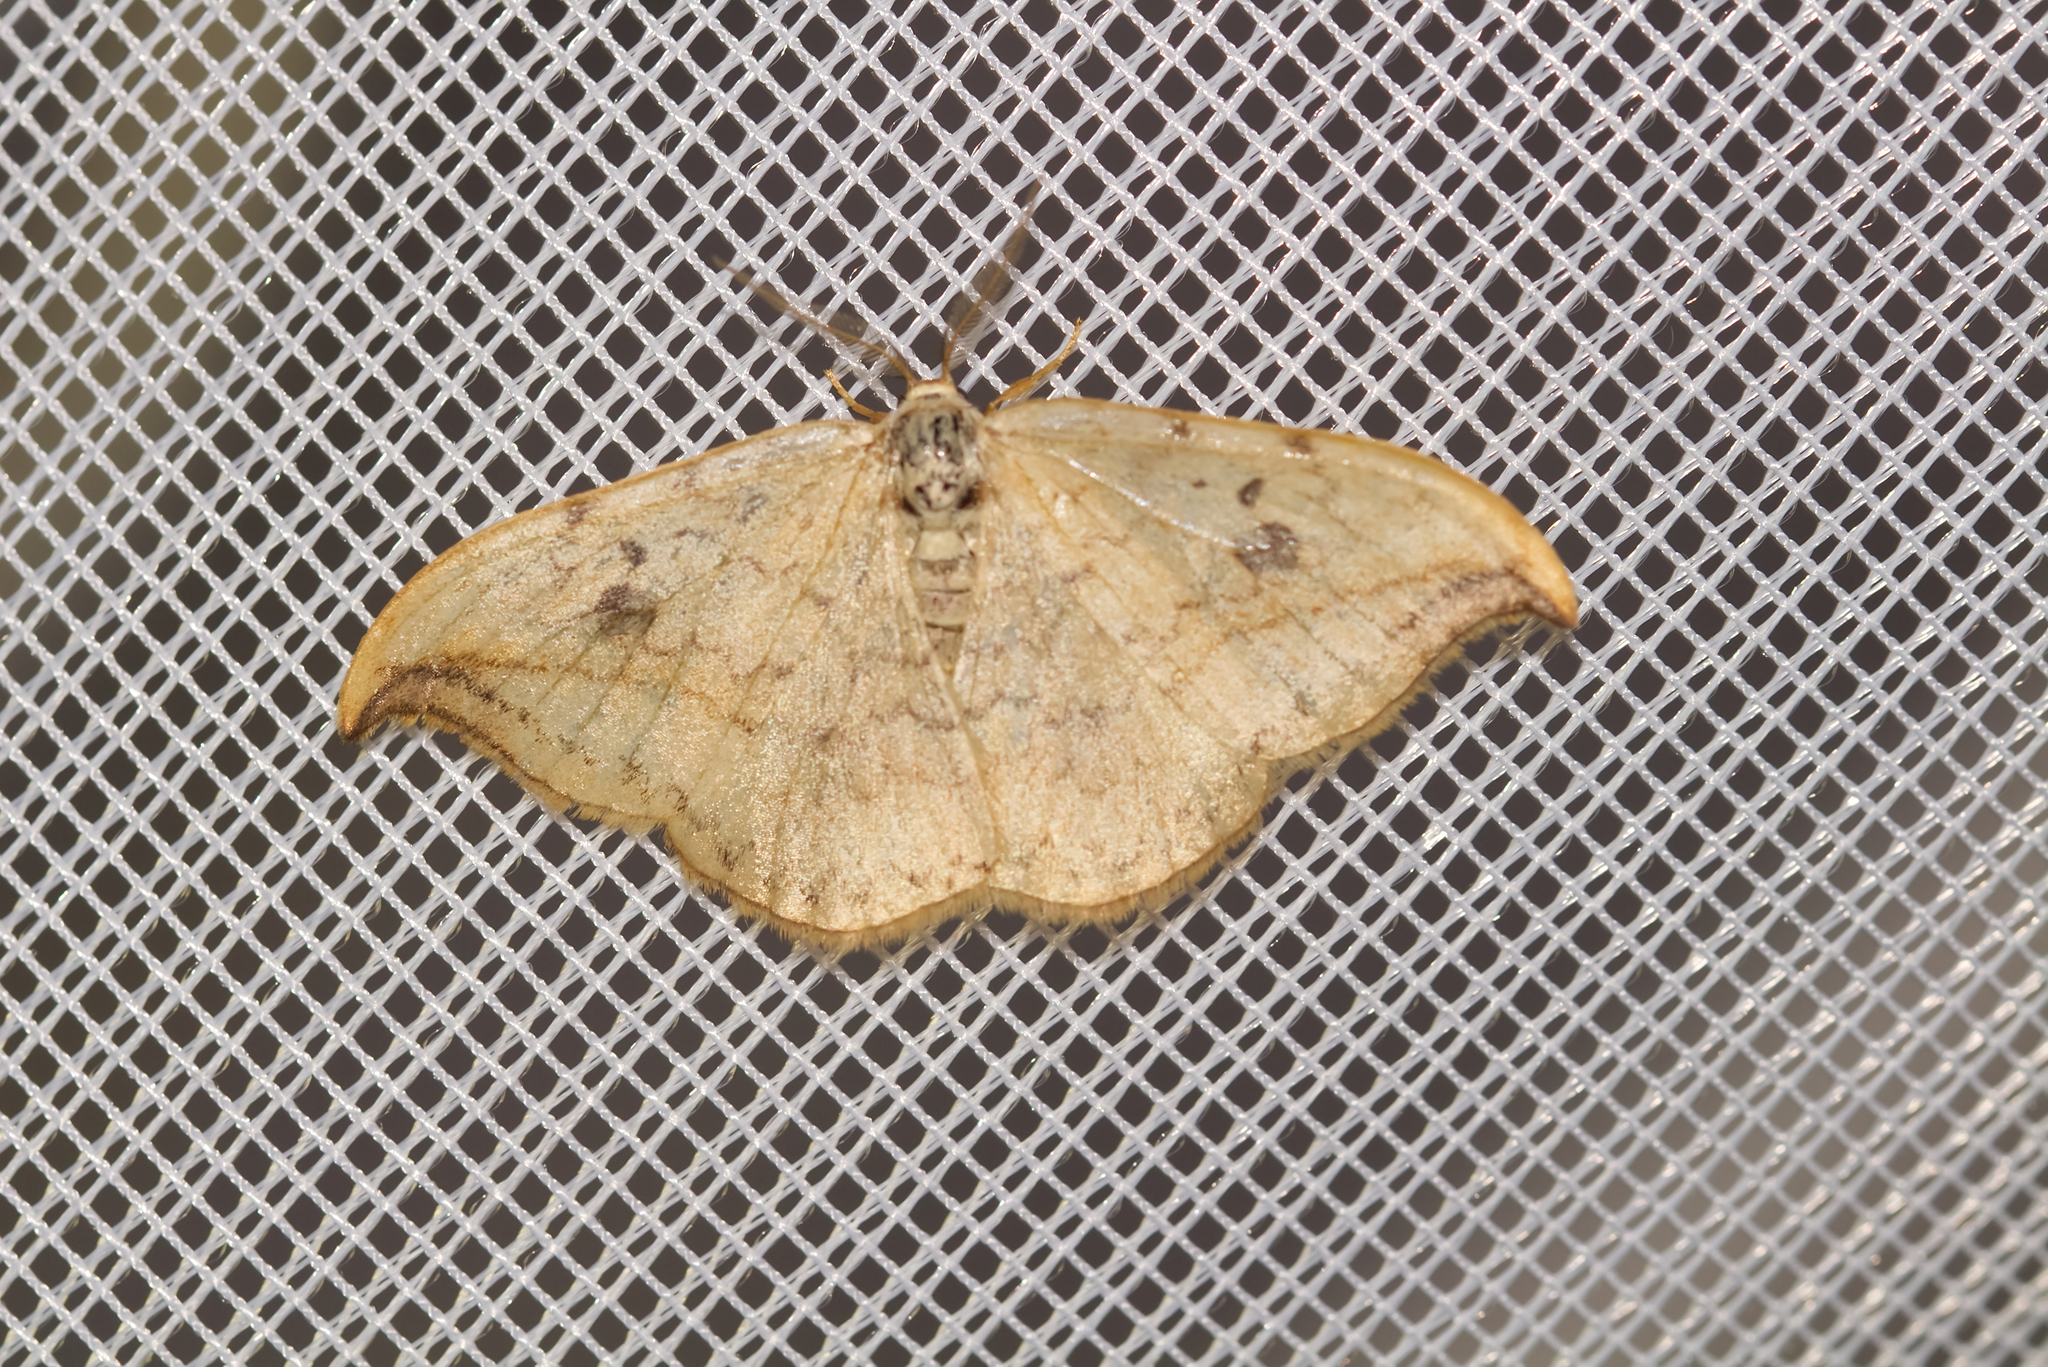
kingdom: Animalia
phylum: Arthropoda
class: Insecta
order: Lepidoptera
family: Drepanidae
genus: Drepana
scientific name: Drepana falcataria
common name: Pebble hook-tip
